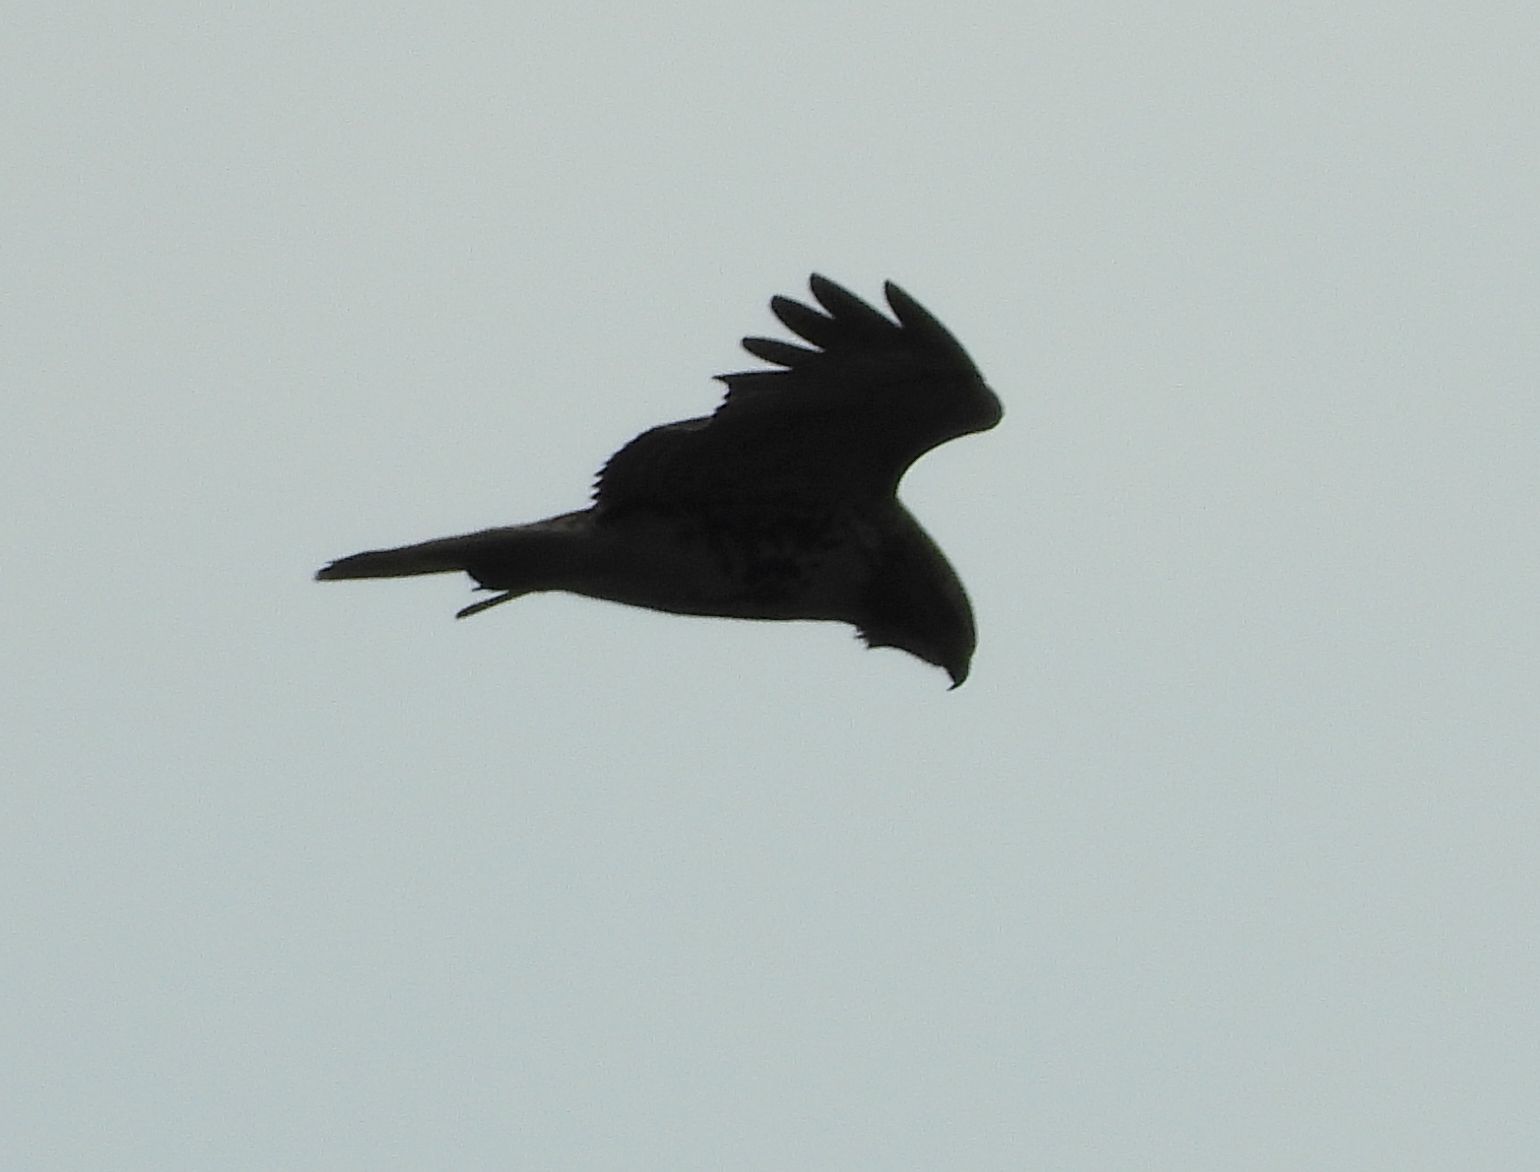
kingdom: Animalia
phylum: Chordata
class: Aves
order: Accipitriformes
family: Accipitridae
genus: Buteo
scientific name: Buteo jamaicensis
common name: Red-tailed hawk
